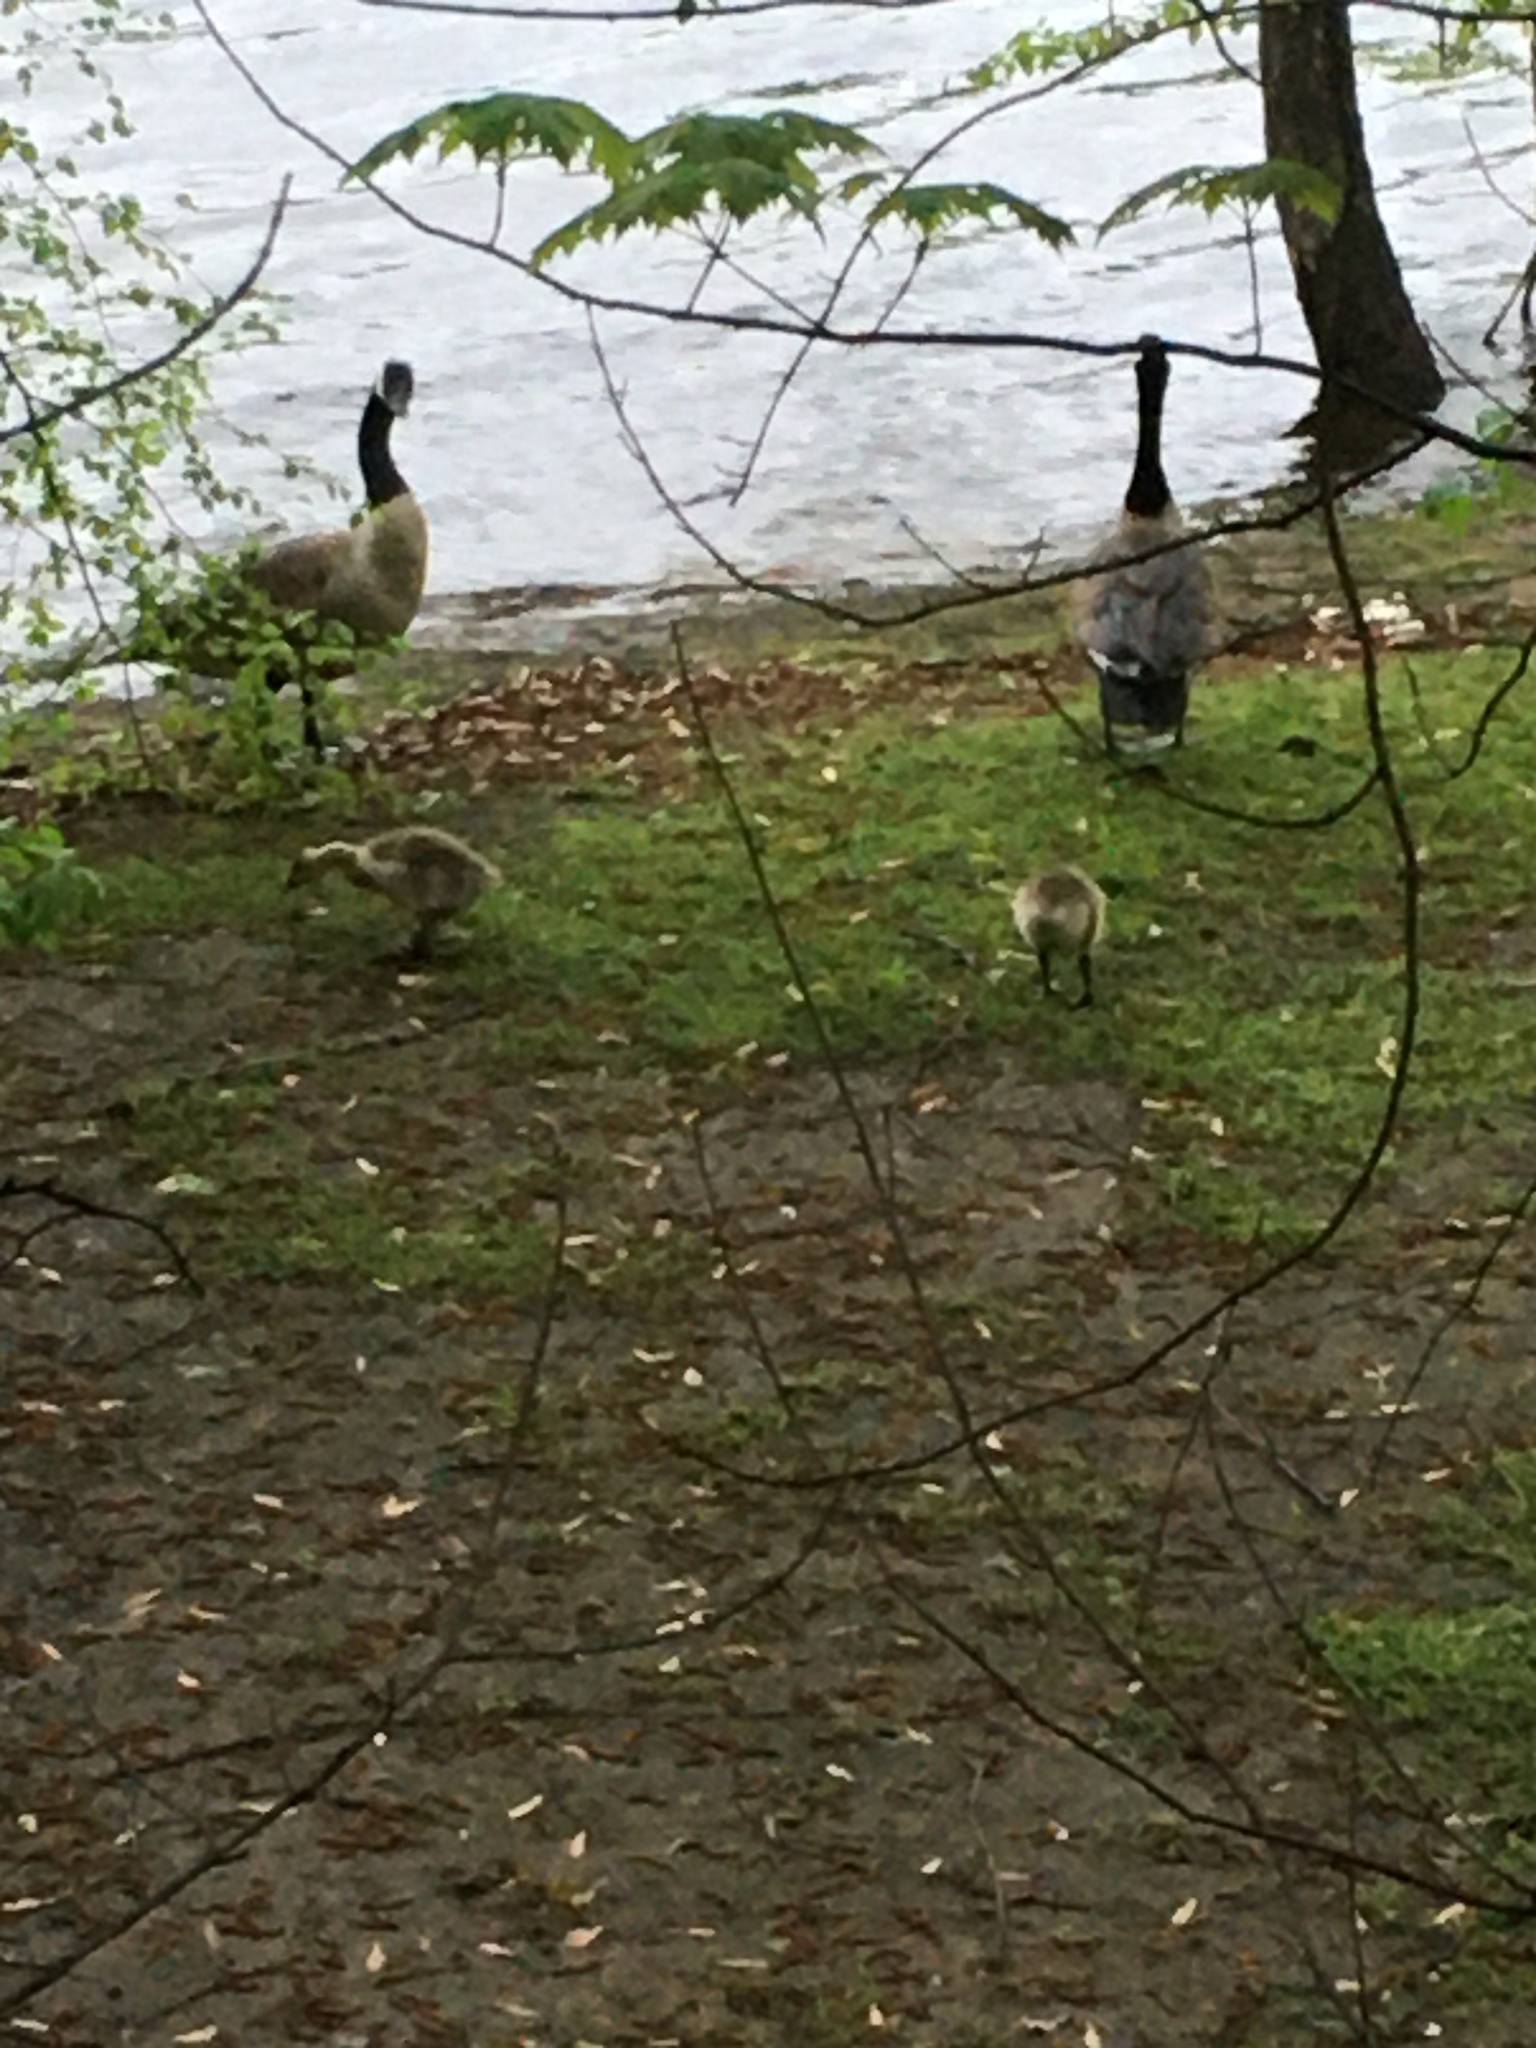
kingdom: Animalia
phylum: Chordata
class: Aves
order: Anseriformes
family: Anatidae
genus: Branta
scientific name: Branta canadensis
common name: Canada goose
